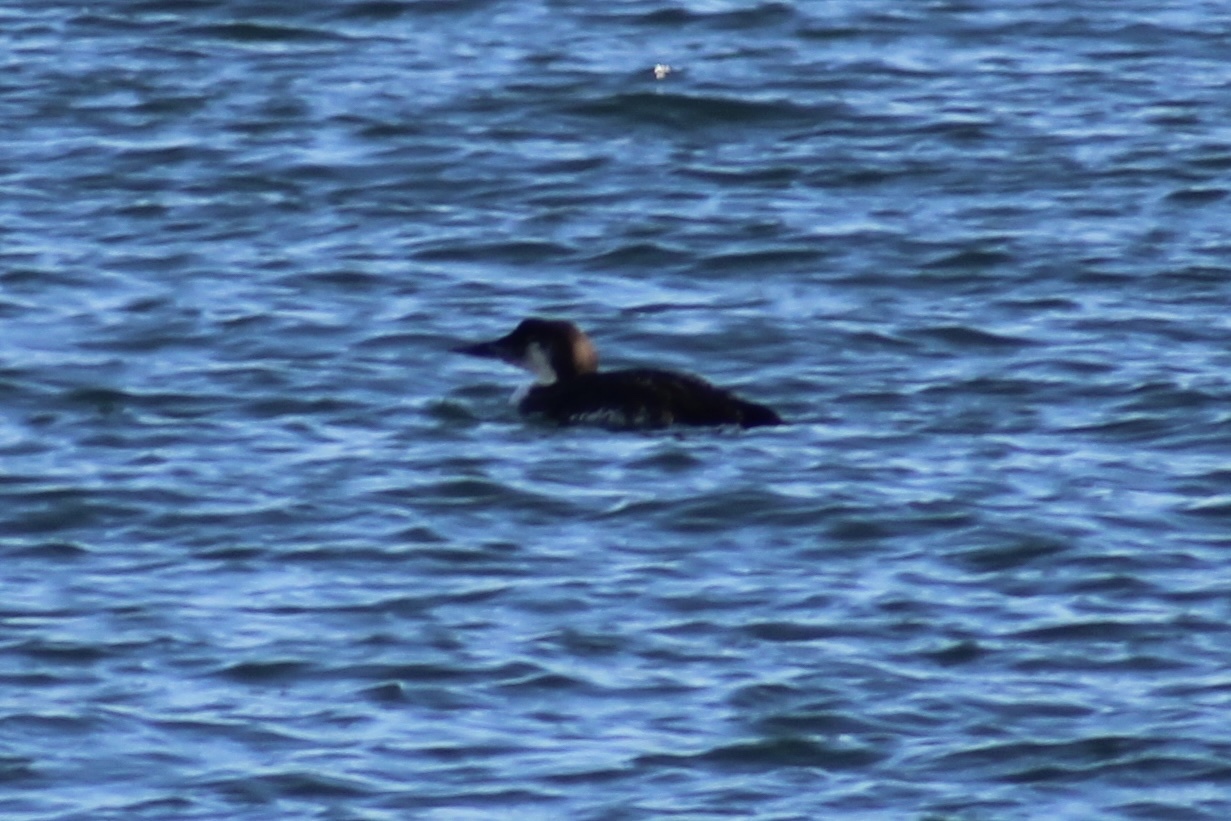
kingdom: Animalia
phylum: Chordata
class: Aves
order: Gaviiformes
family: Gaviidae
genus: Gavia
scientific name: Gavia immer
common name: Common loon
